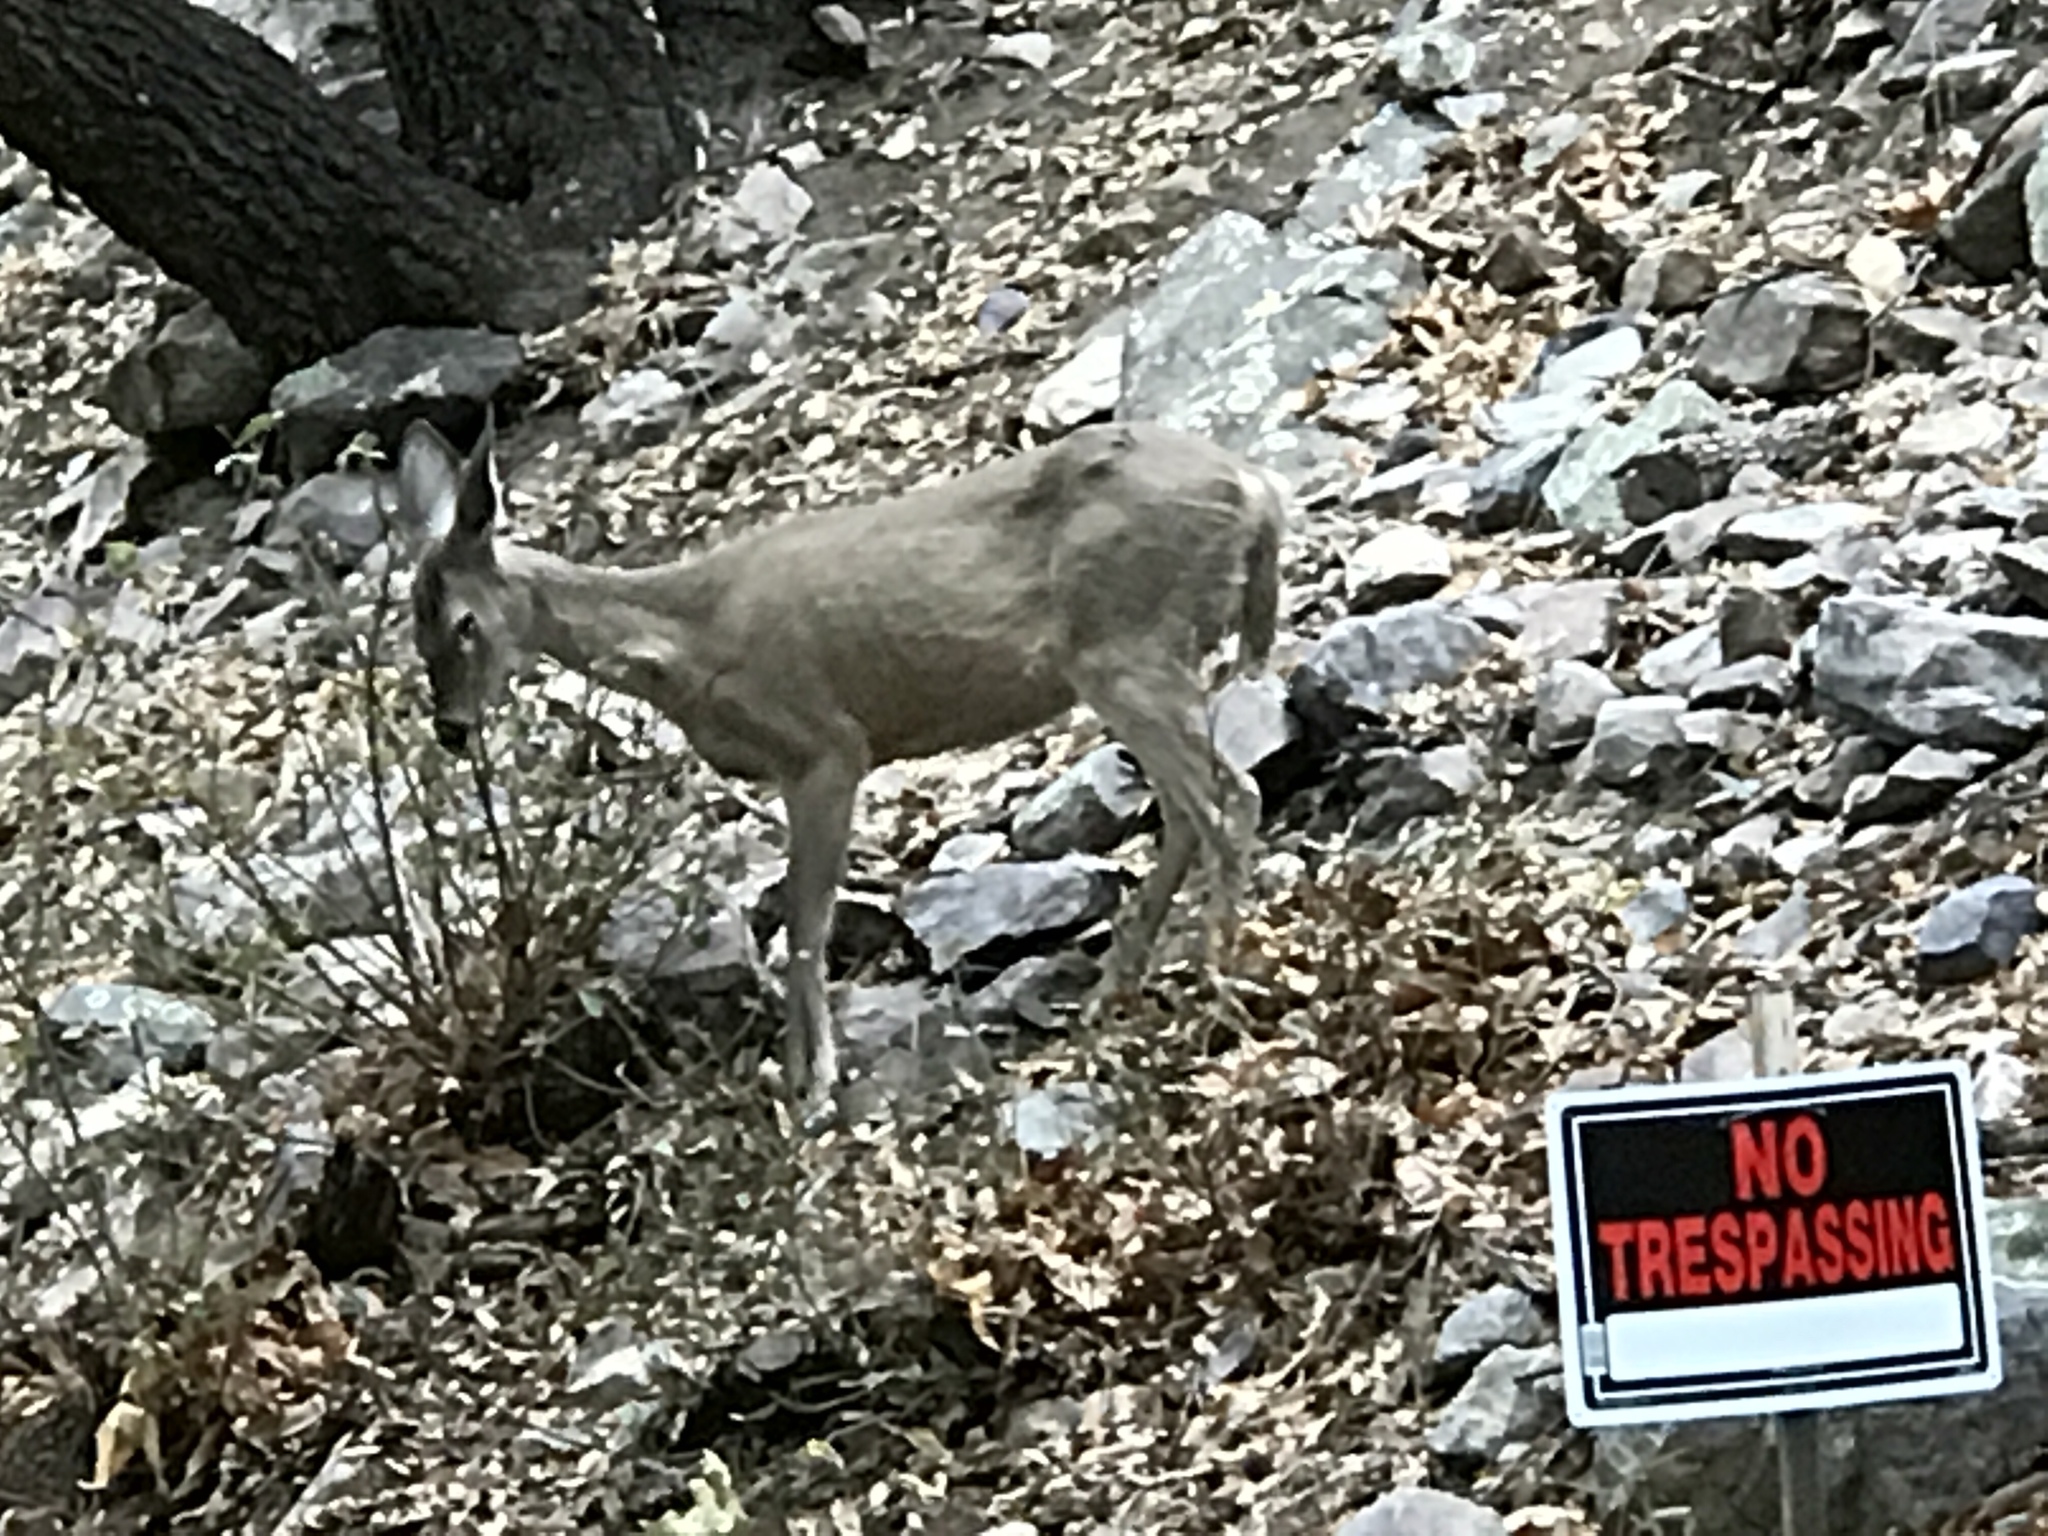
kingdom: Animalia
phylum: Chordata
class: Mammalia
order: Artiodactyla
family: Cervidae
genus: Odocoileus
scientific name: Odocoileus virginianus
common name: White-tailed deer
